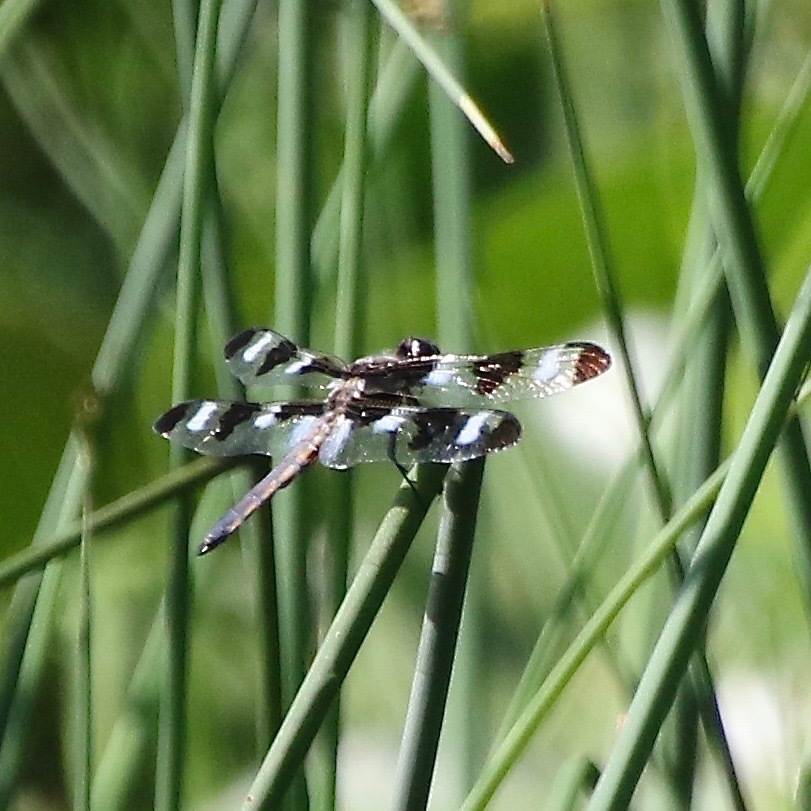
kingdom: Animalia
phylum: Arthropoda
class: Insecta
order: Odonata
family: Libellulidae
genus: Libellula
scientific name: Libellula pulchella
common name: Twelve-spotted skimmer
